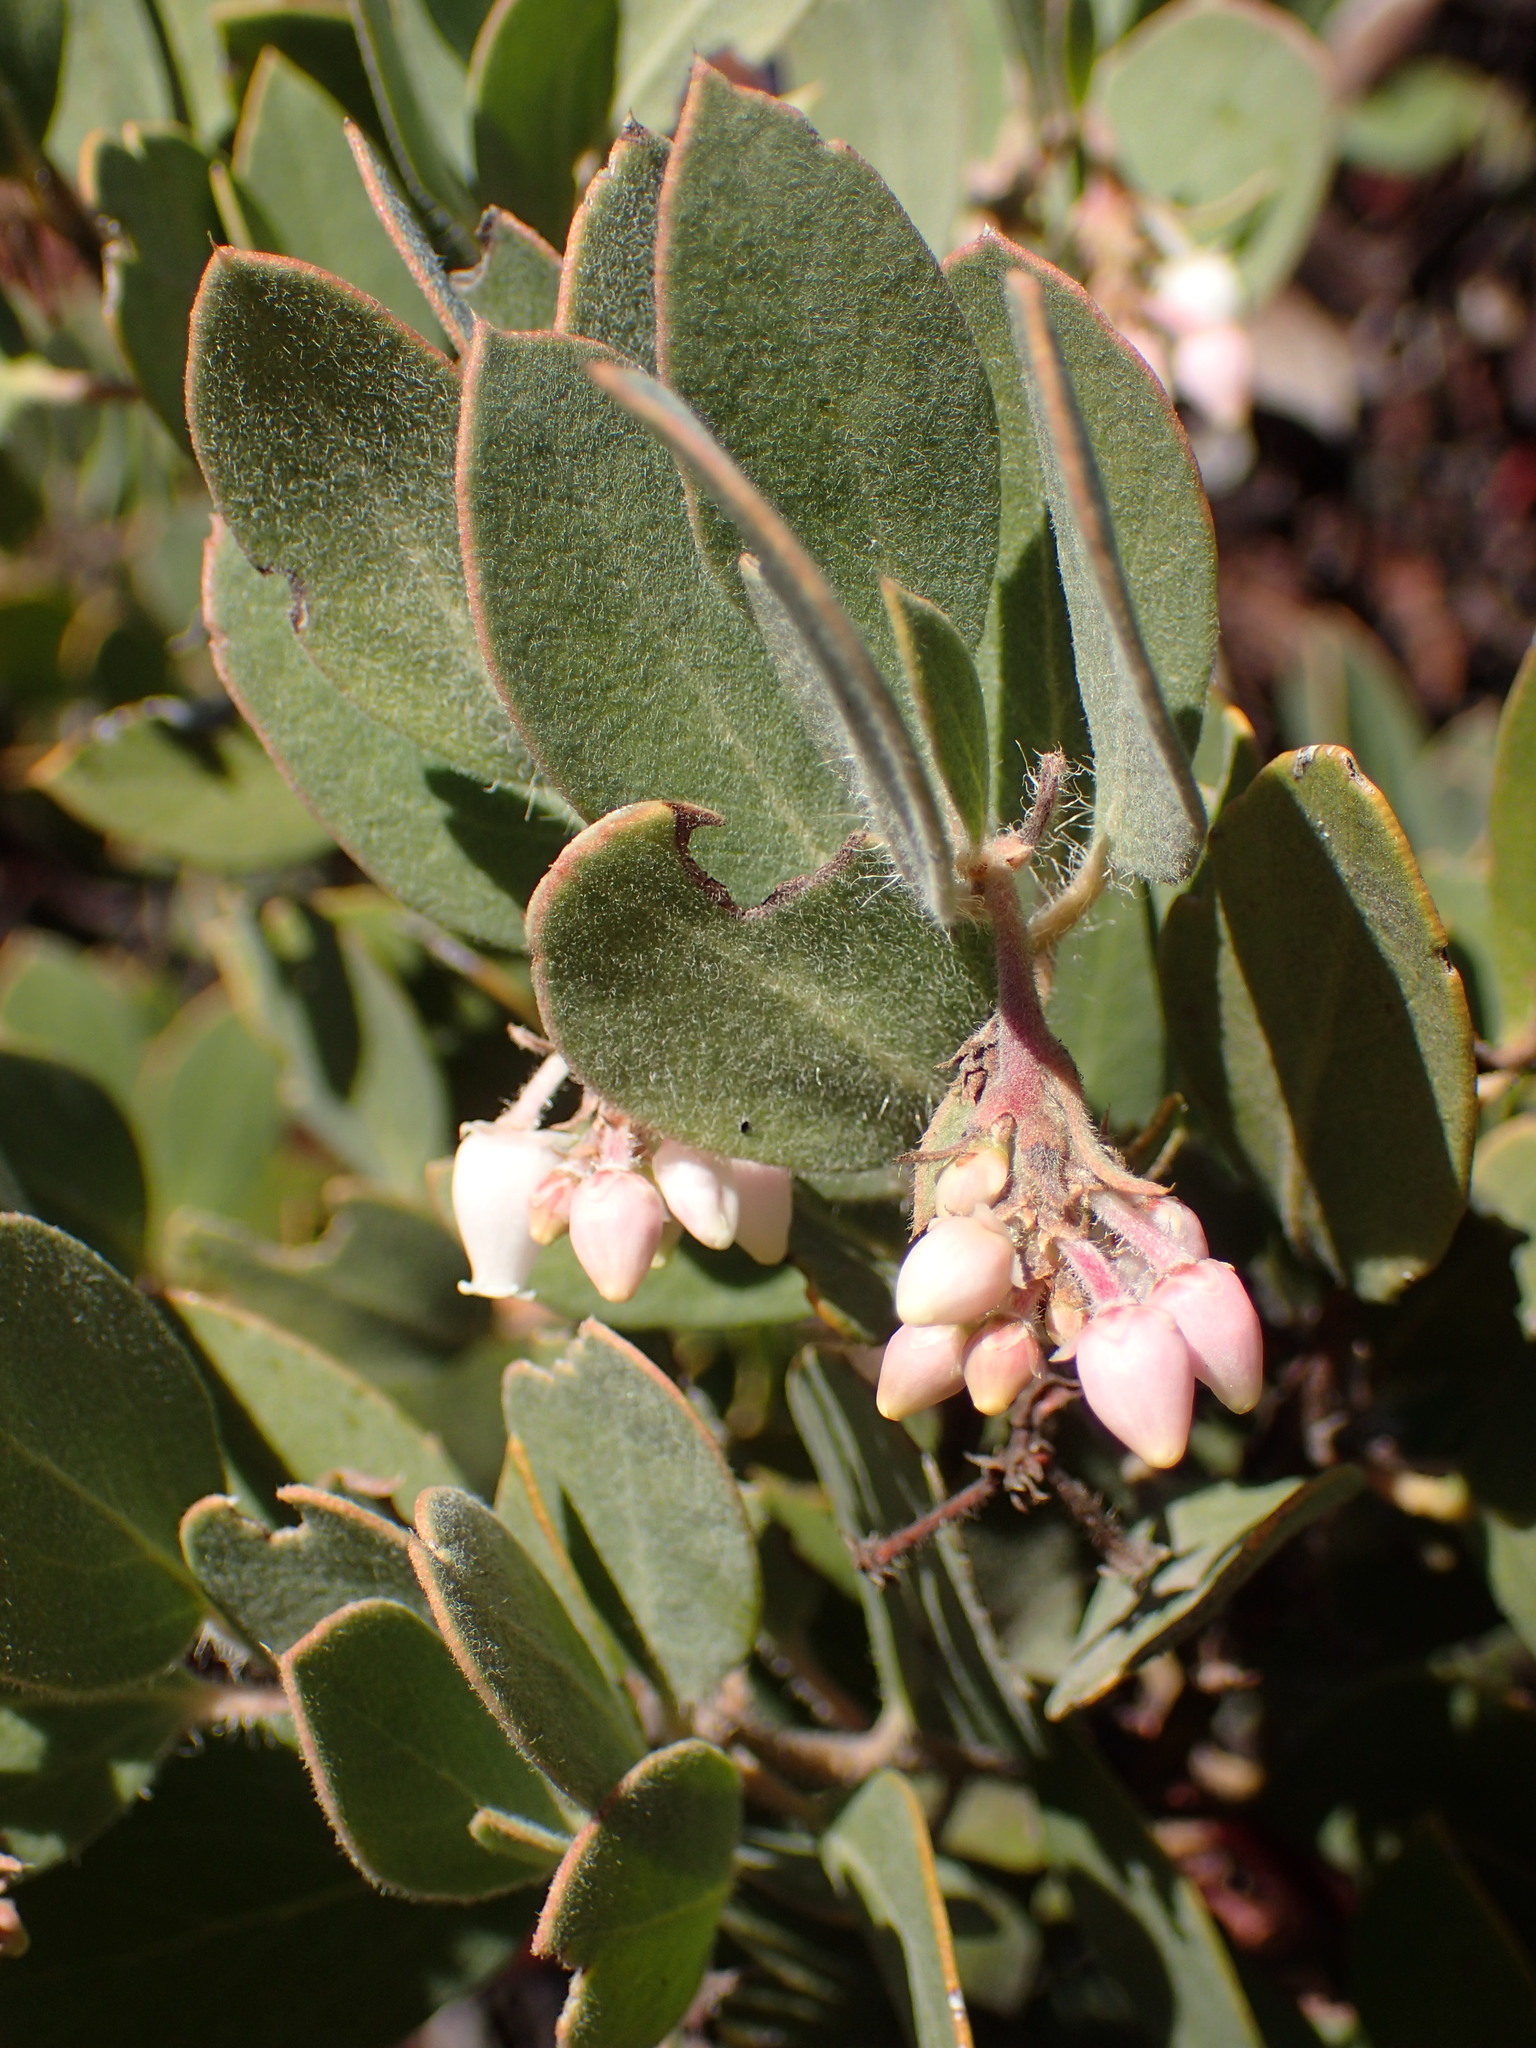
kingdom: Plantae
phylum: Tracheophyta
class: Magnoliopsida
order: Ericales
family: Ericaceae
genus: Arctostaphylos
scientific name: Arctostaphylos glandulosa
